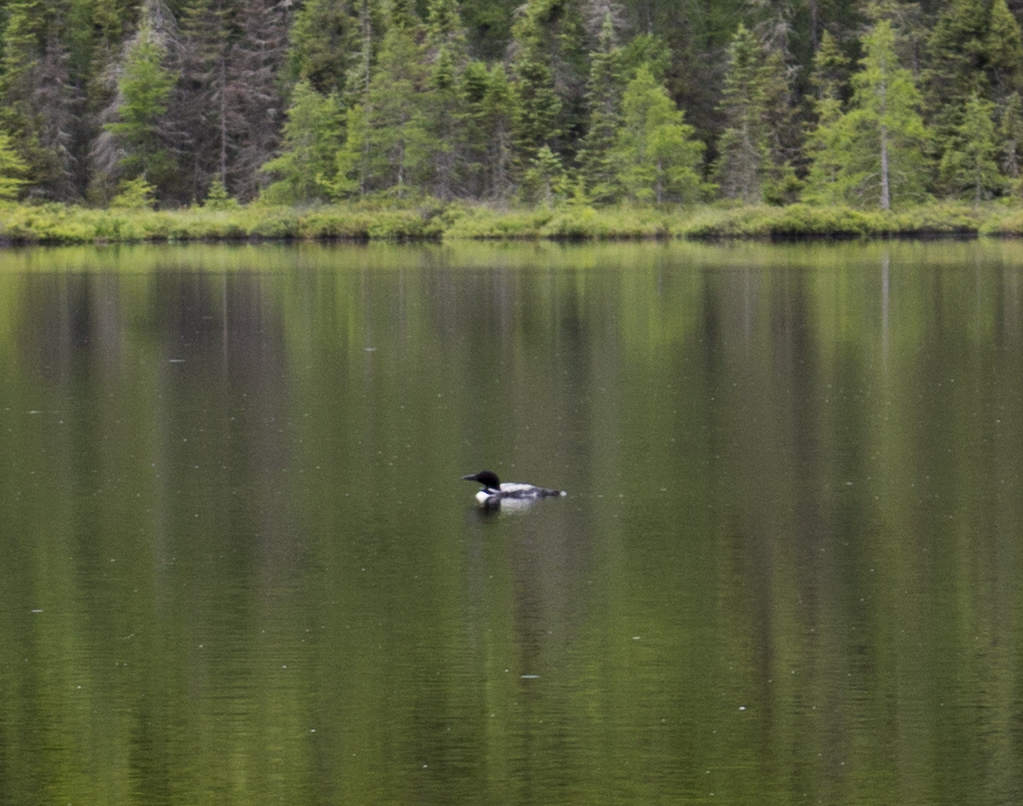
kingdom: Animalia
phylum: Chordata
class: Aves
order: Gaviiformes
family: Gaviidae
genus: Gavia
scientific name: Gavia immer
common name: Common loon
